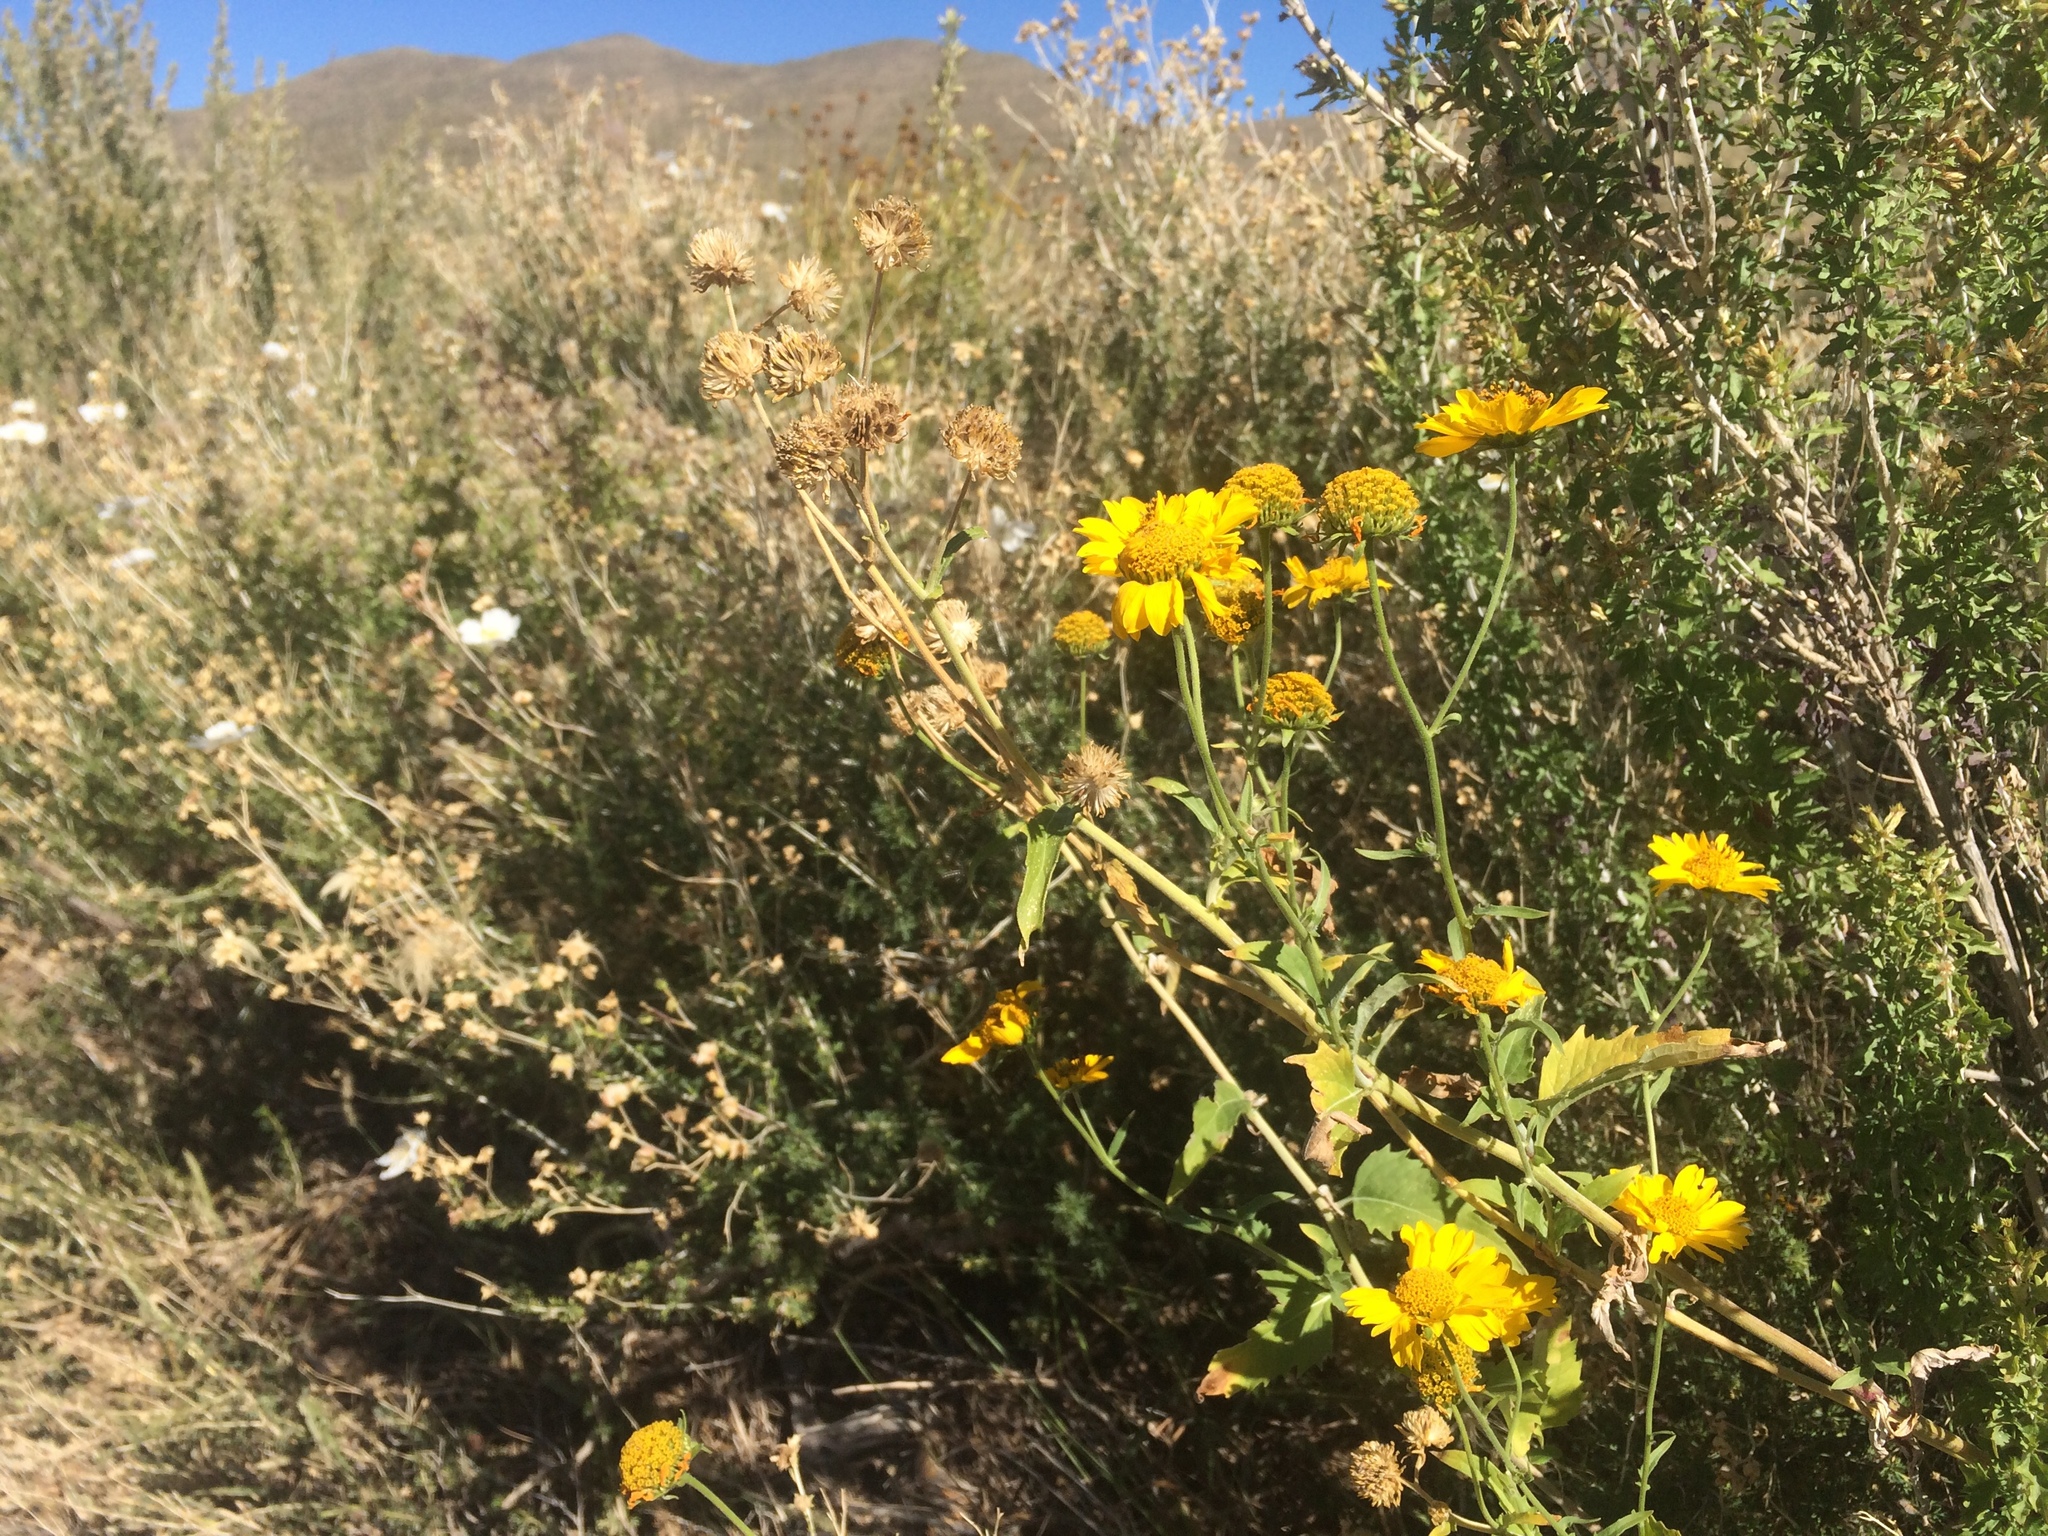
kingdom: Plantae
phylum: Tracheophyta
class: Magnoliopsida
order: Asterales
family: Asteraceae
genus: Verbesina
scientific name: Verbesina encelioides
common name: Golden crownbeard
